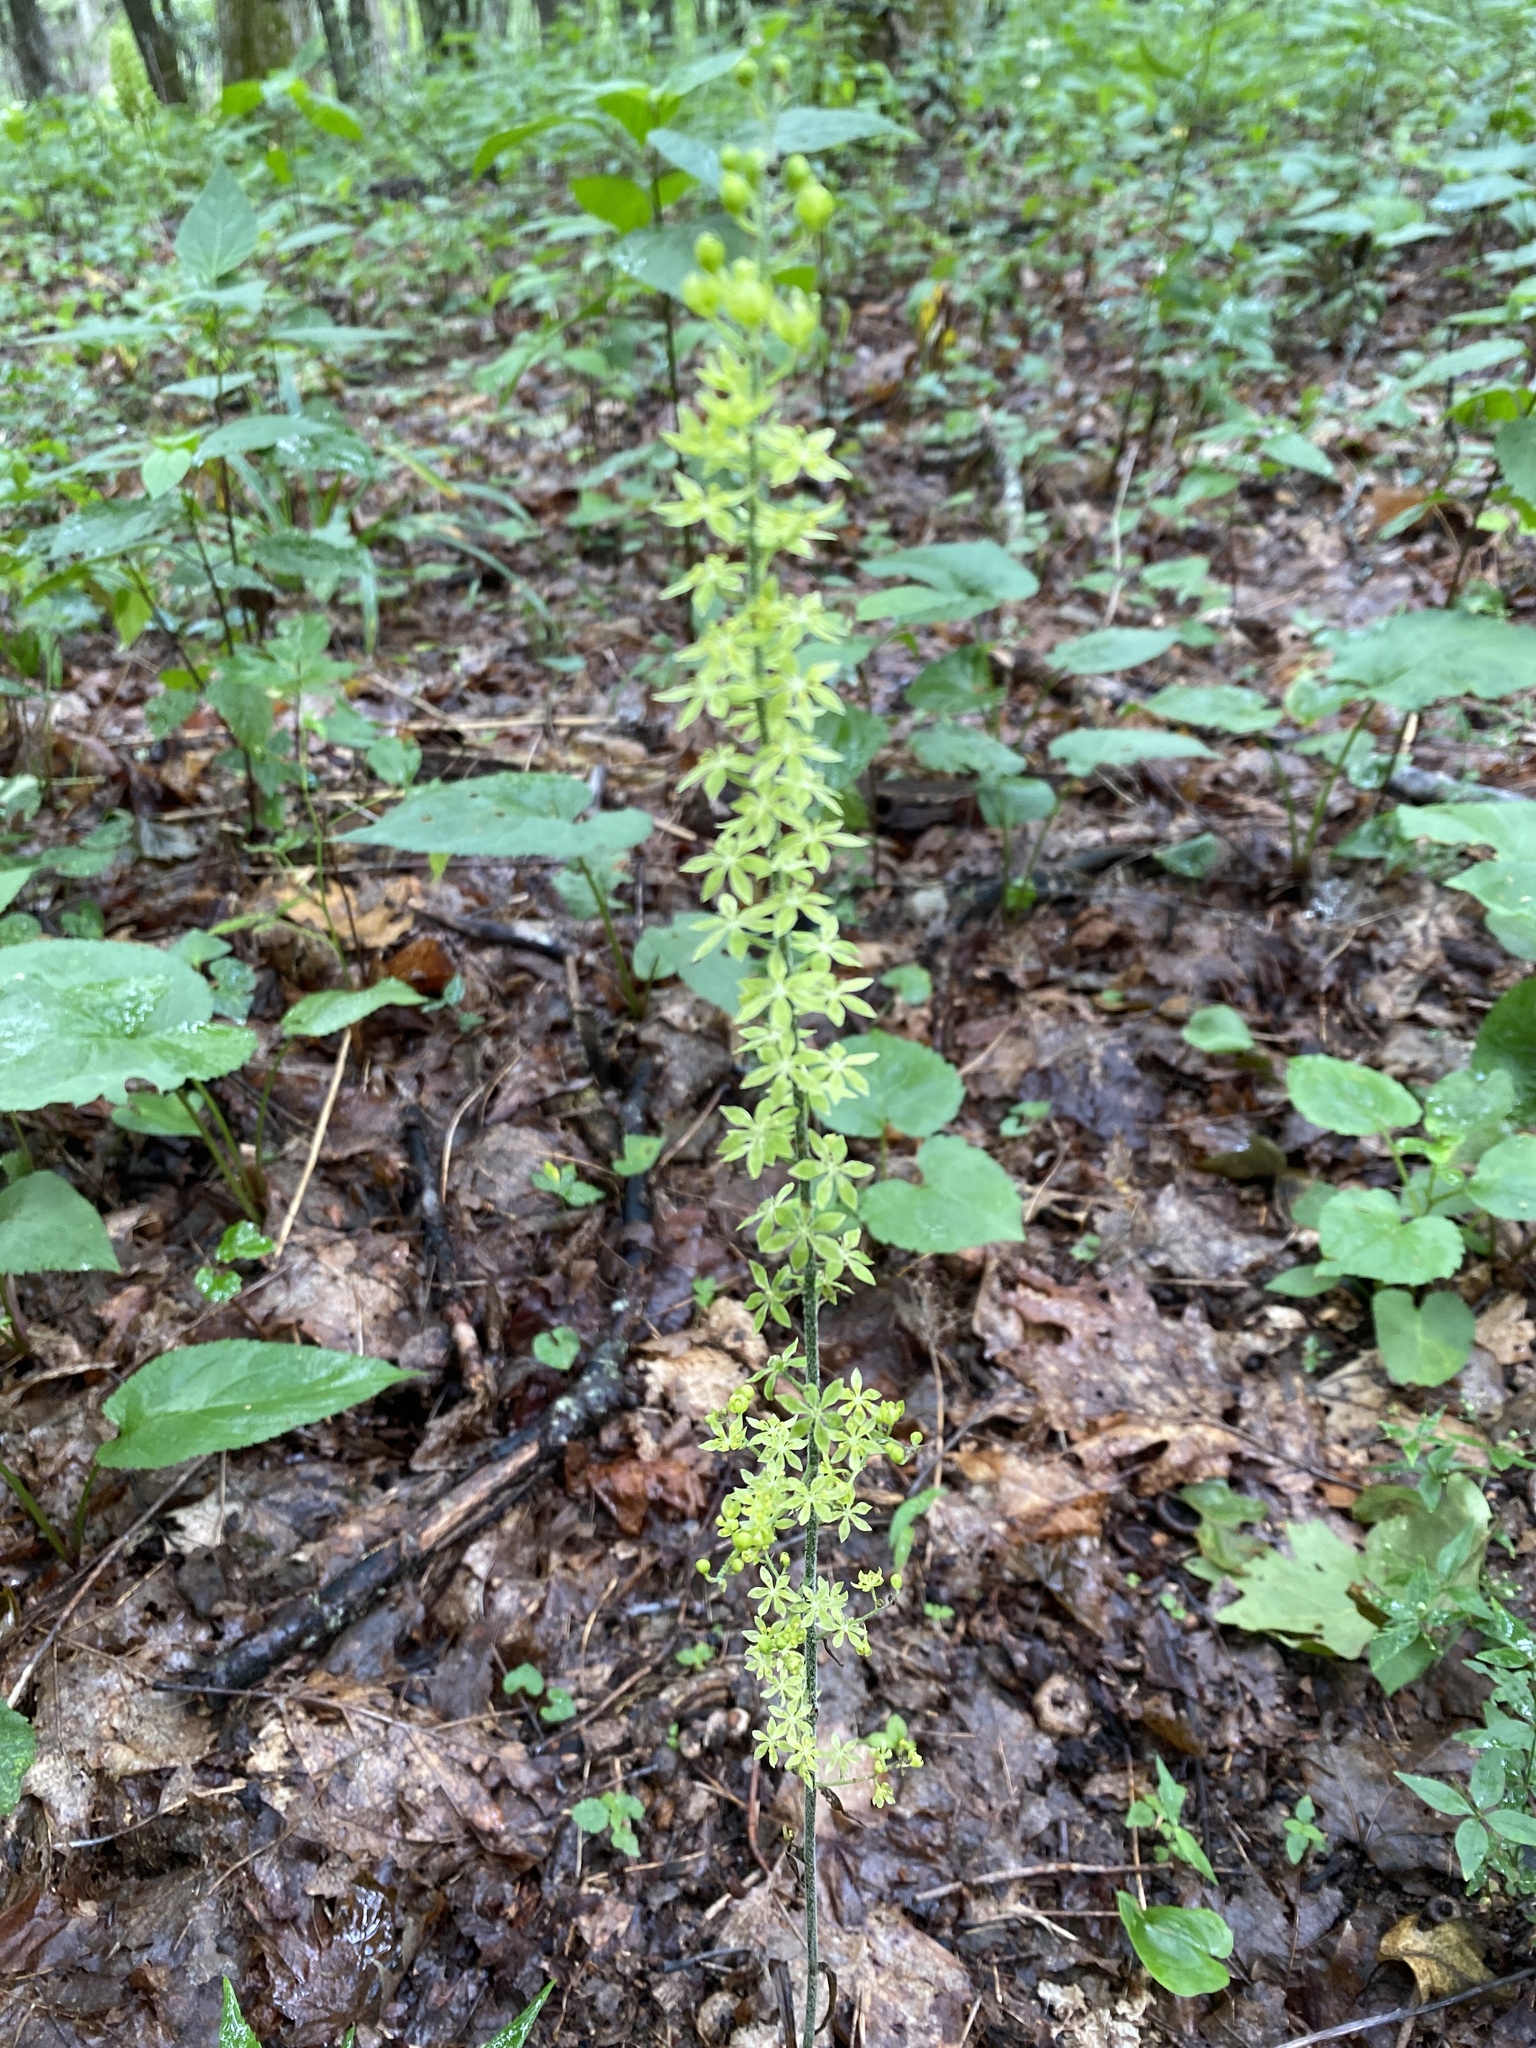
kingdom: Plantae
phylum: Tracheophyta
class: Liliopsida
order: Liliales
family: Melanthiaceae
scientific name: Melanthiaceae
